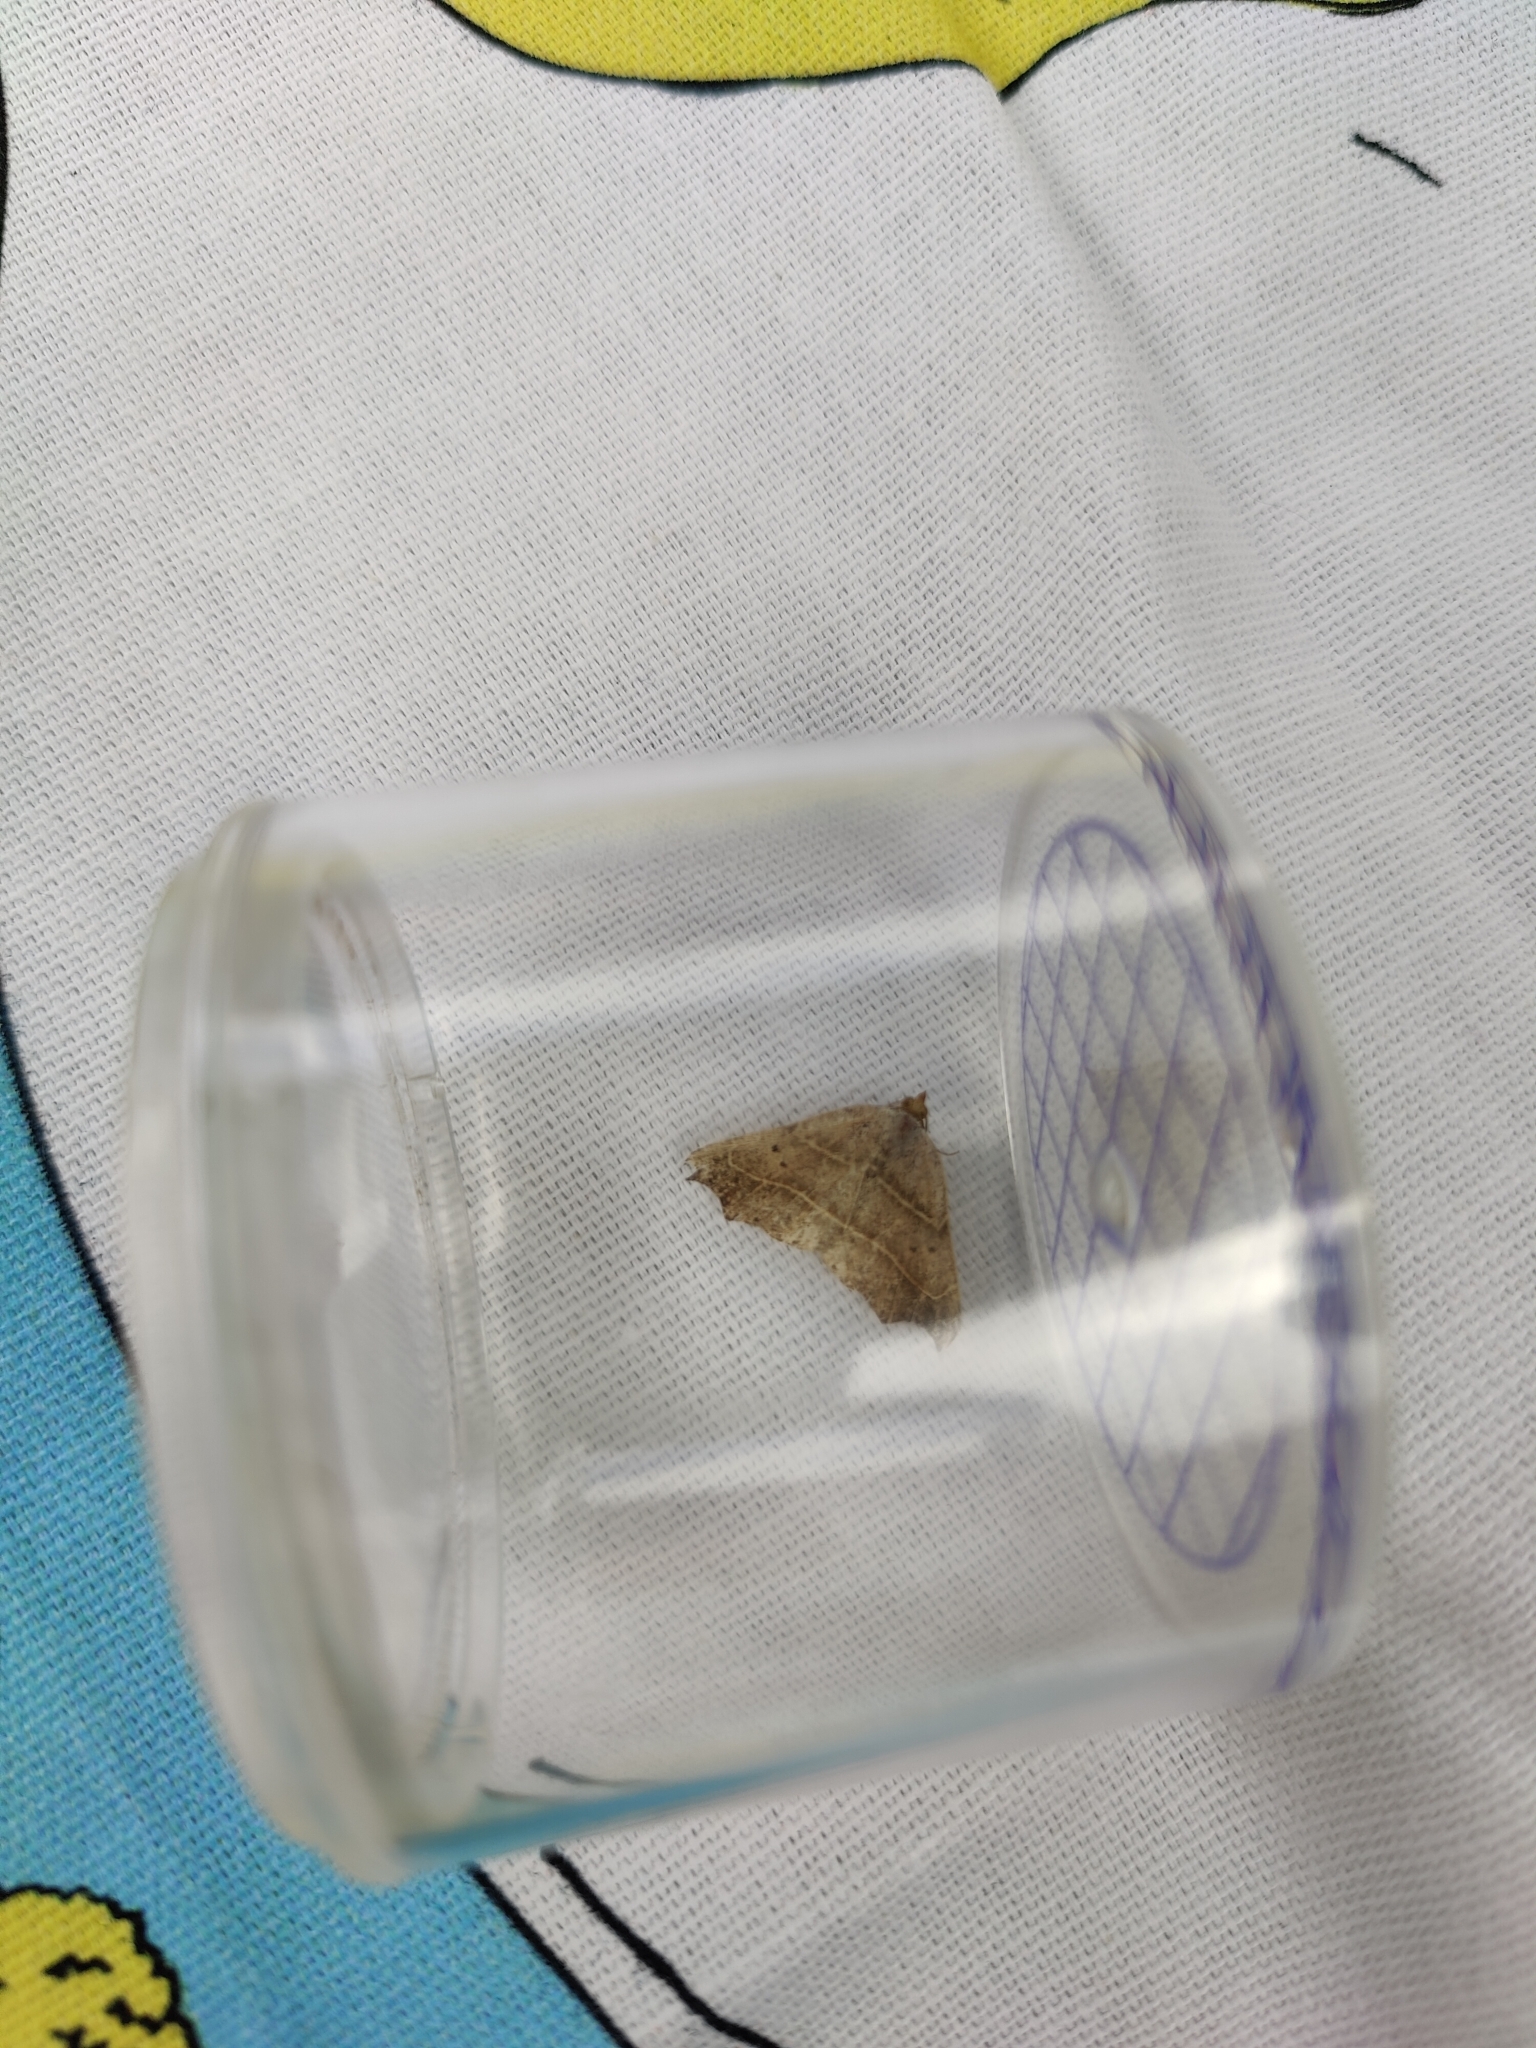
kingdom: Animalia
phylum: Arthropoda
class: Insecta
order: Lepidoptera
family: Erebidae
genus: Laspeyria
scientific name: Laspeyria flexula
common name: Beautiful hook-tip
